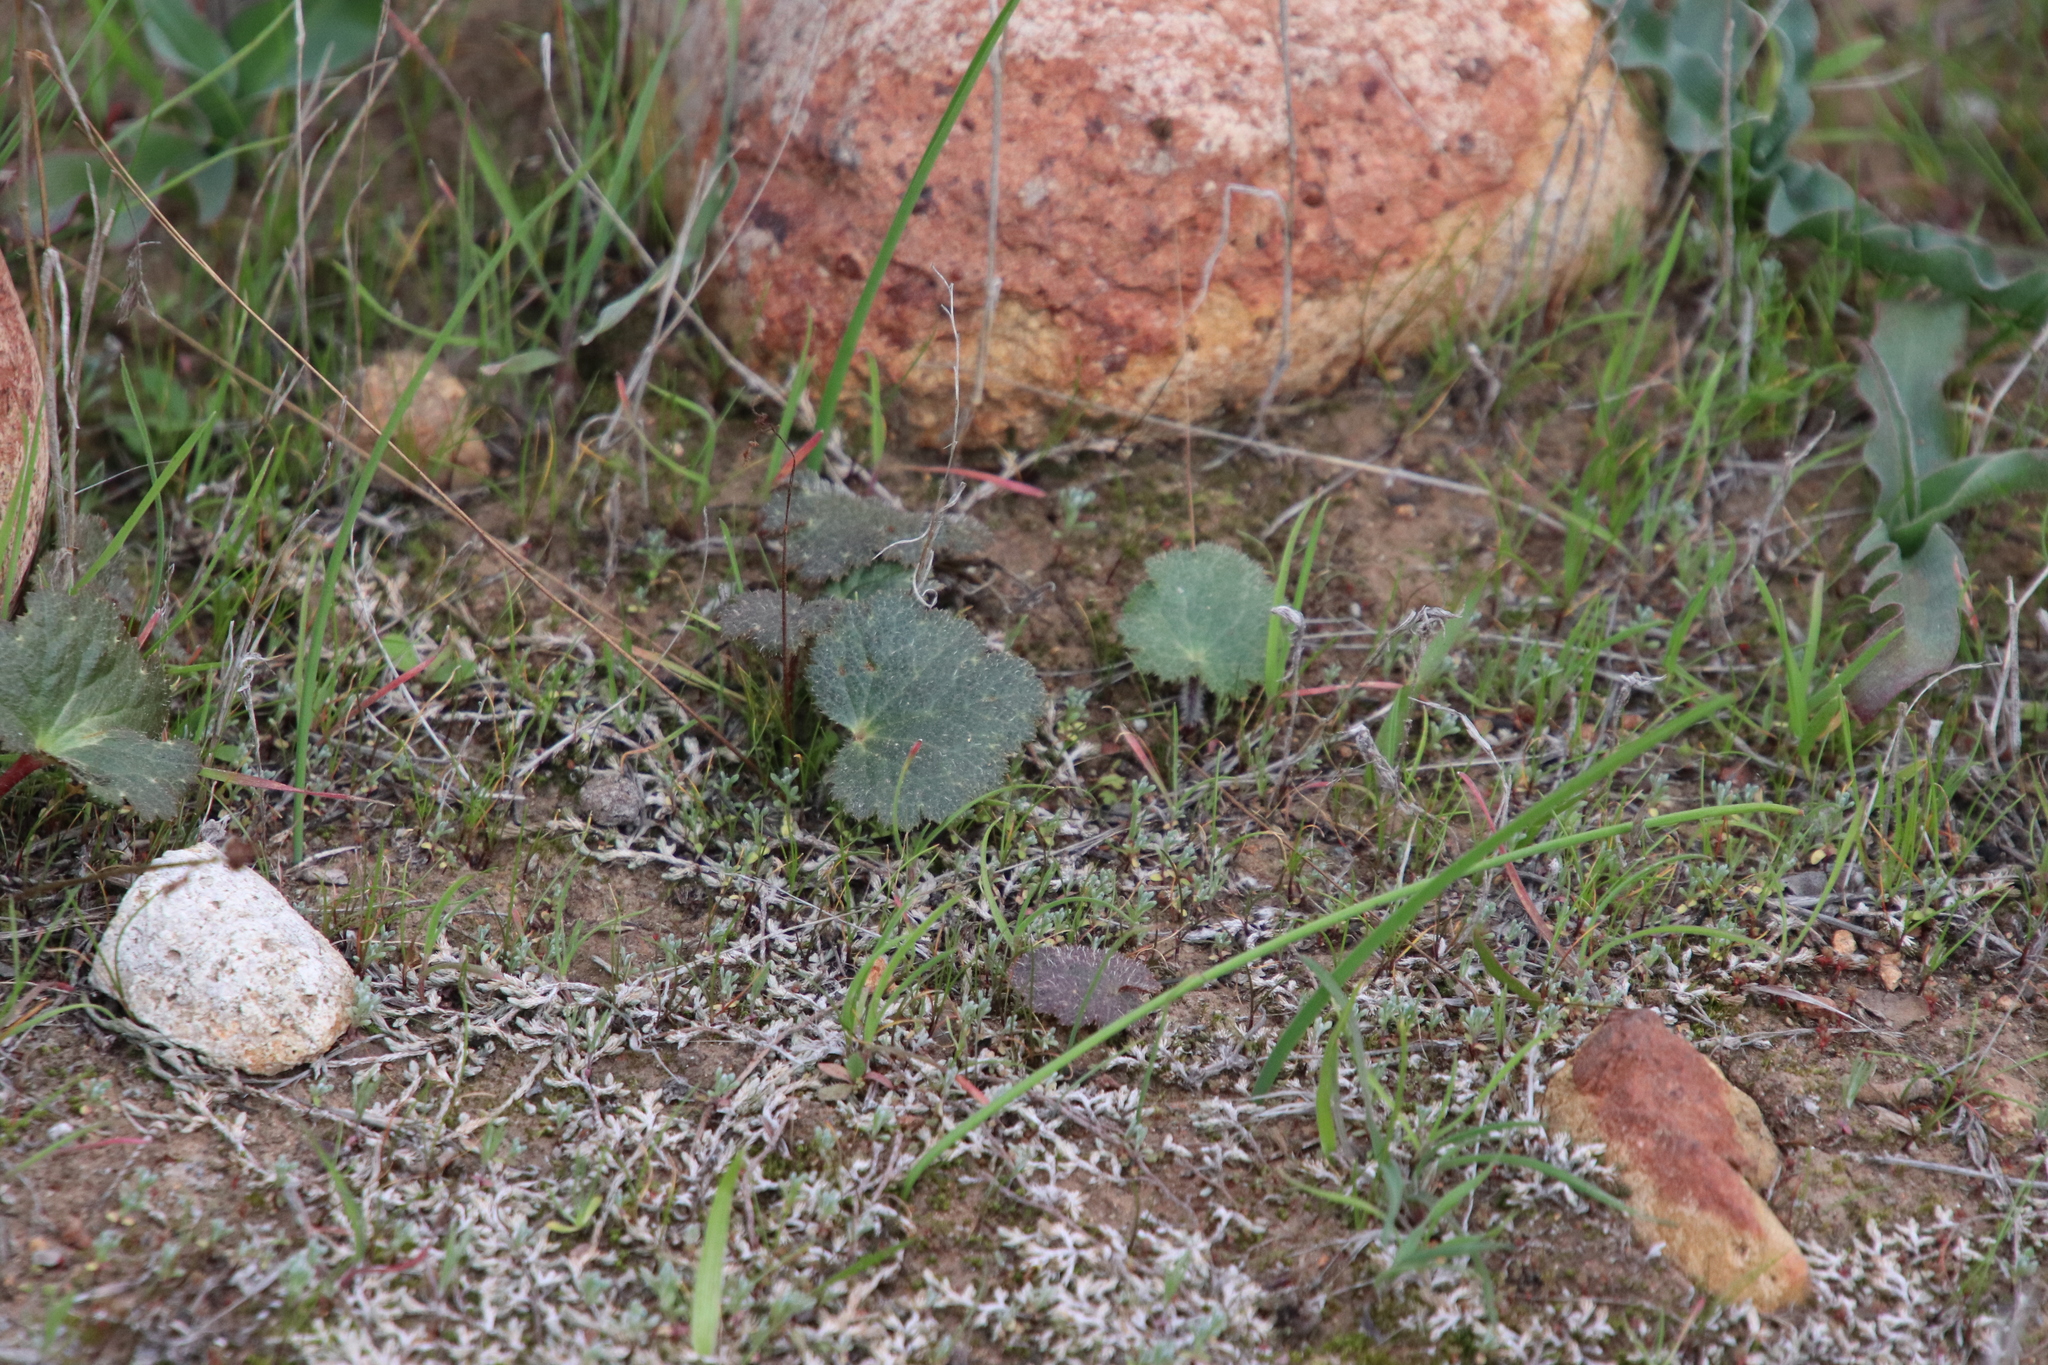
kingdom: Plantae
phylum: Tracheophyta
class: Magnoliopsida
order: Saxifragales
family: Saxifragaceae
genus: Jepsonia
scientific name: Jepsonia parryi
